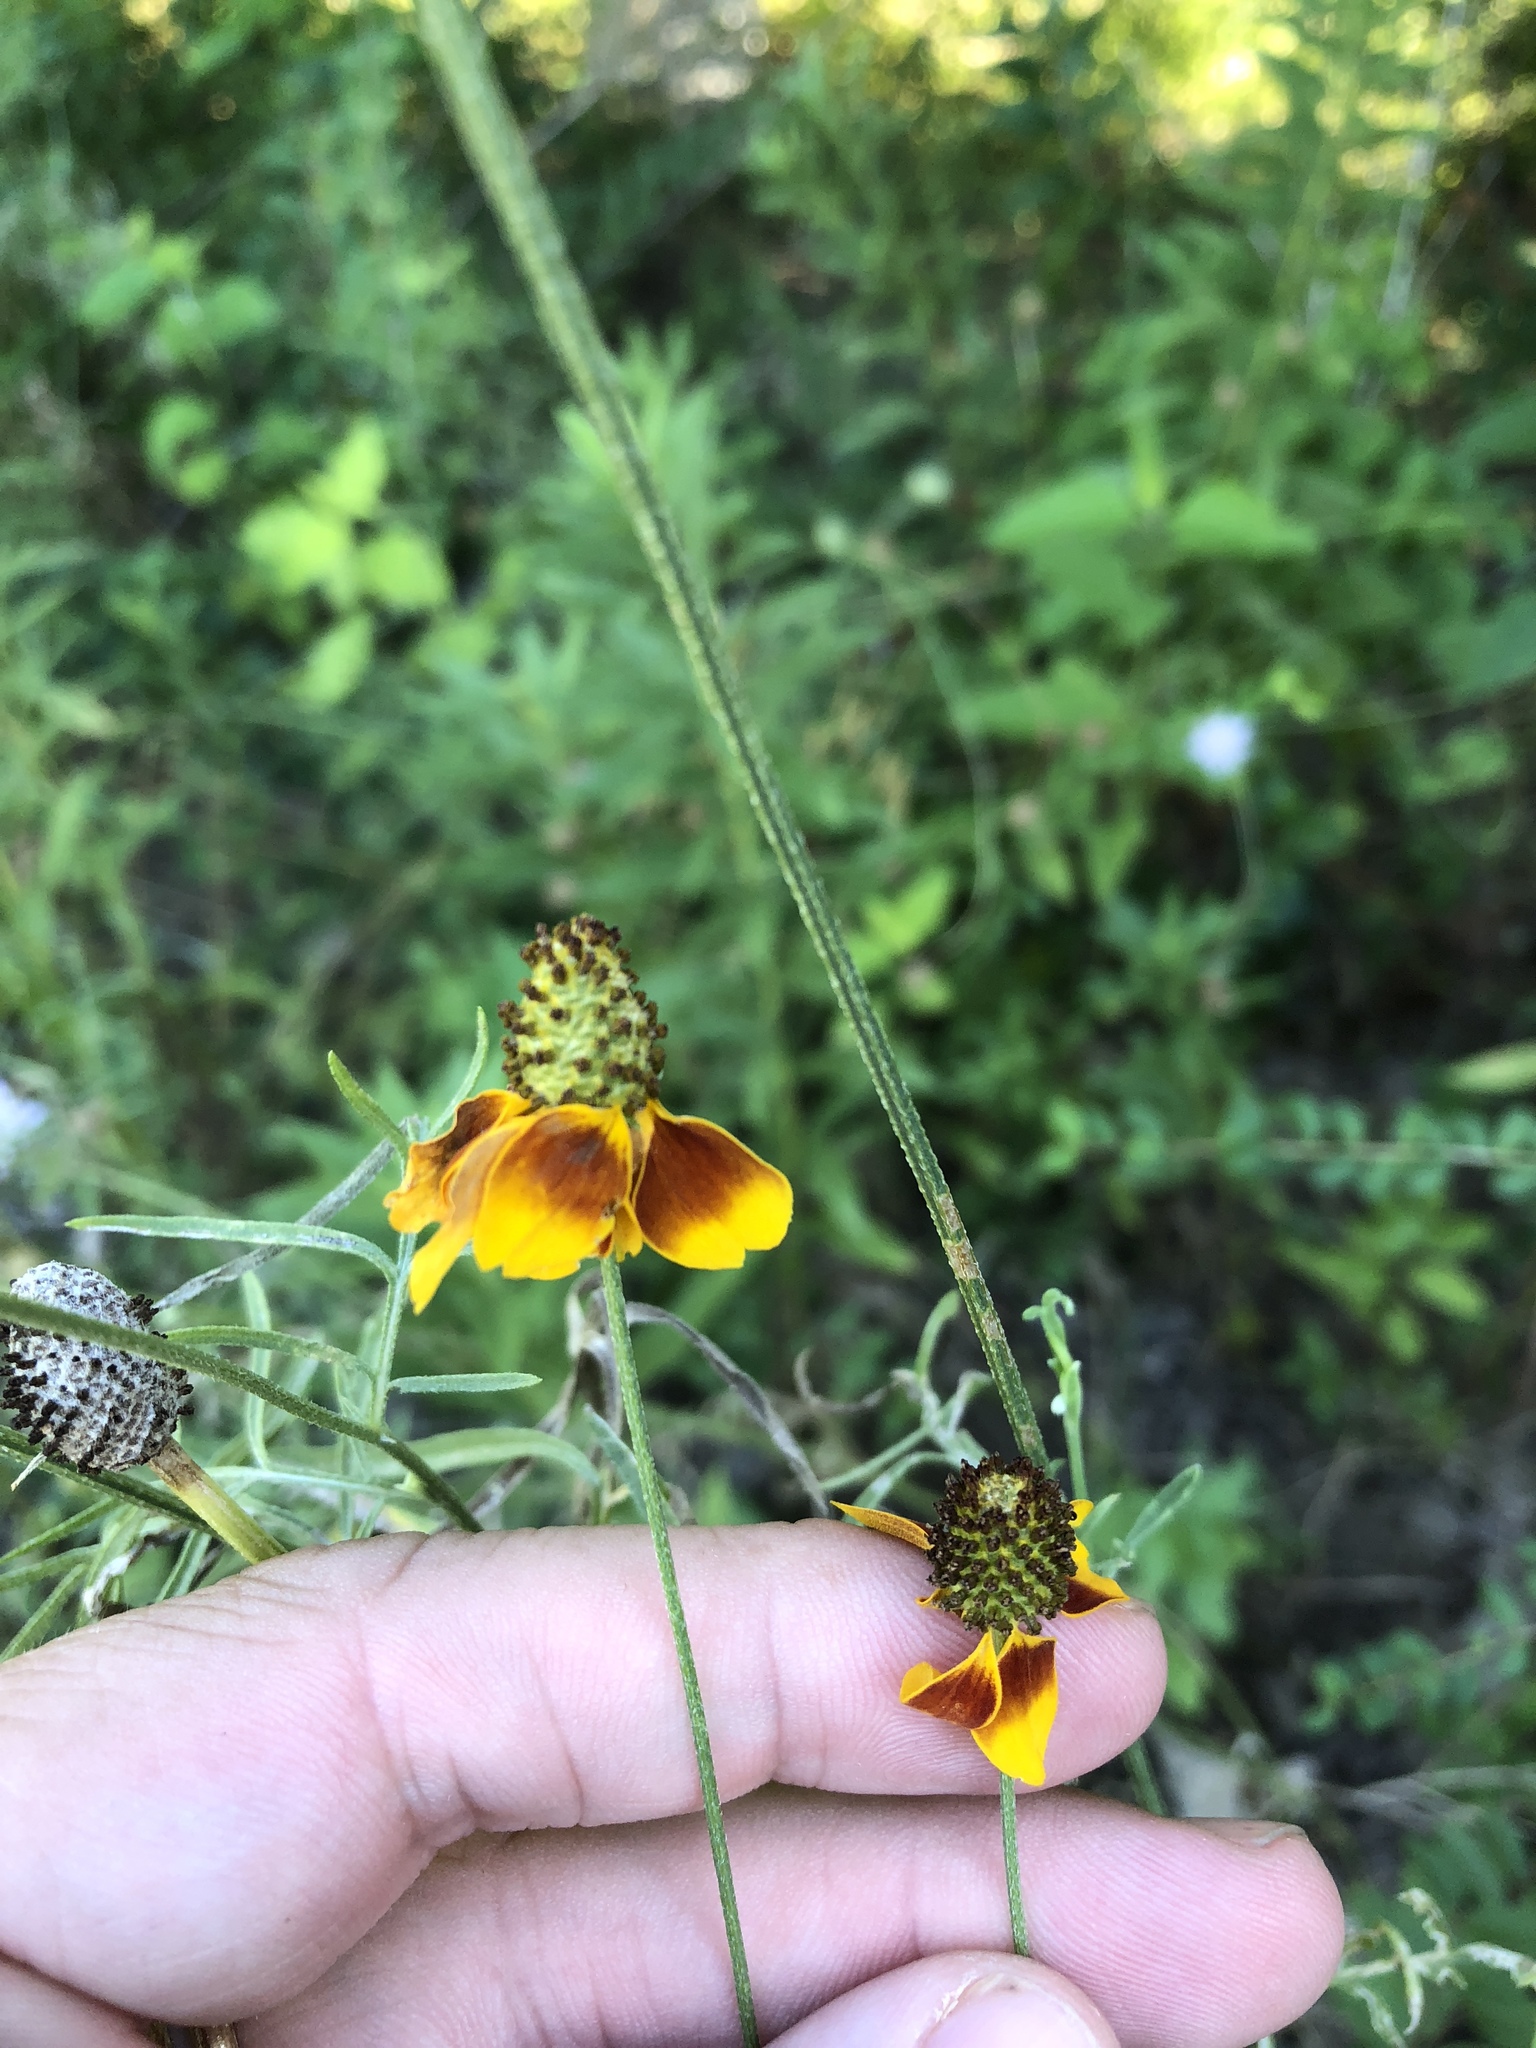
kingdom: Plantae
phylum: Tracheophyta
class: Magnoliopsida
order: Asterales
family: Asteraceae
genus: Ratibida
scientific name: Ratibida columnifera
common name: Prairie coneflower
